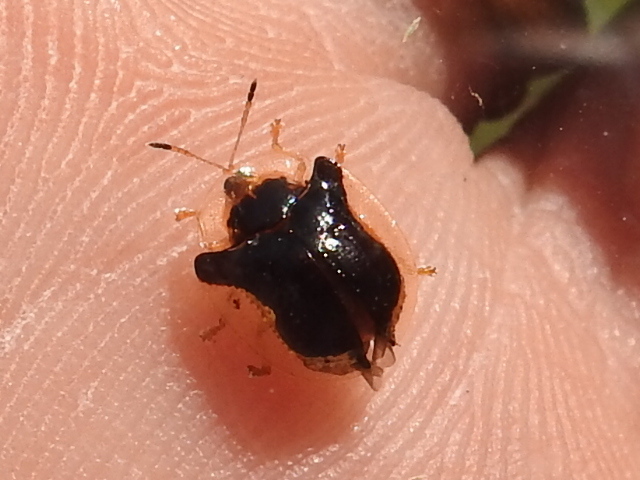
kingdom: Animalia
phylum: Arthropoda
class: Insecta
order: Coleoptera
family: Chrysomelidae
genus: Deloyala
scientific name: Deloyala guttata
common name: Mottled tortoise beetle
